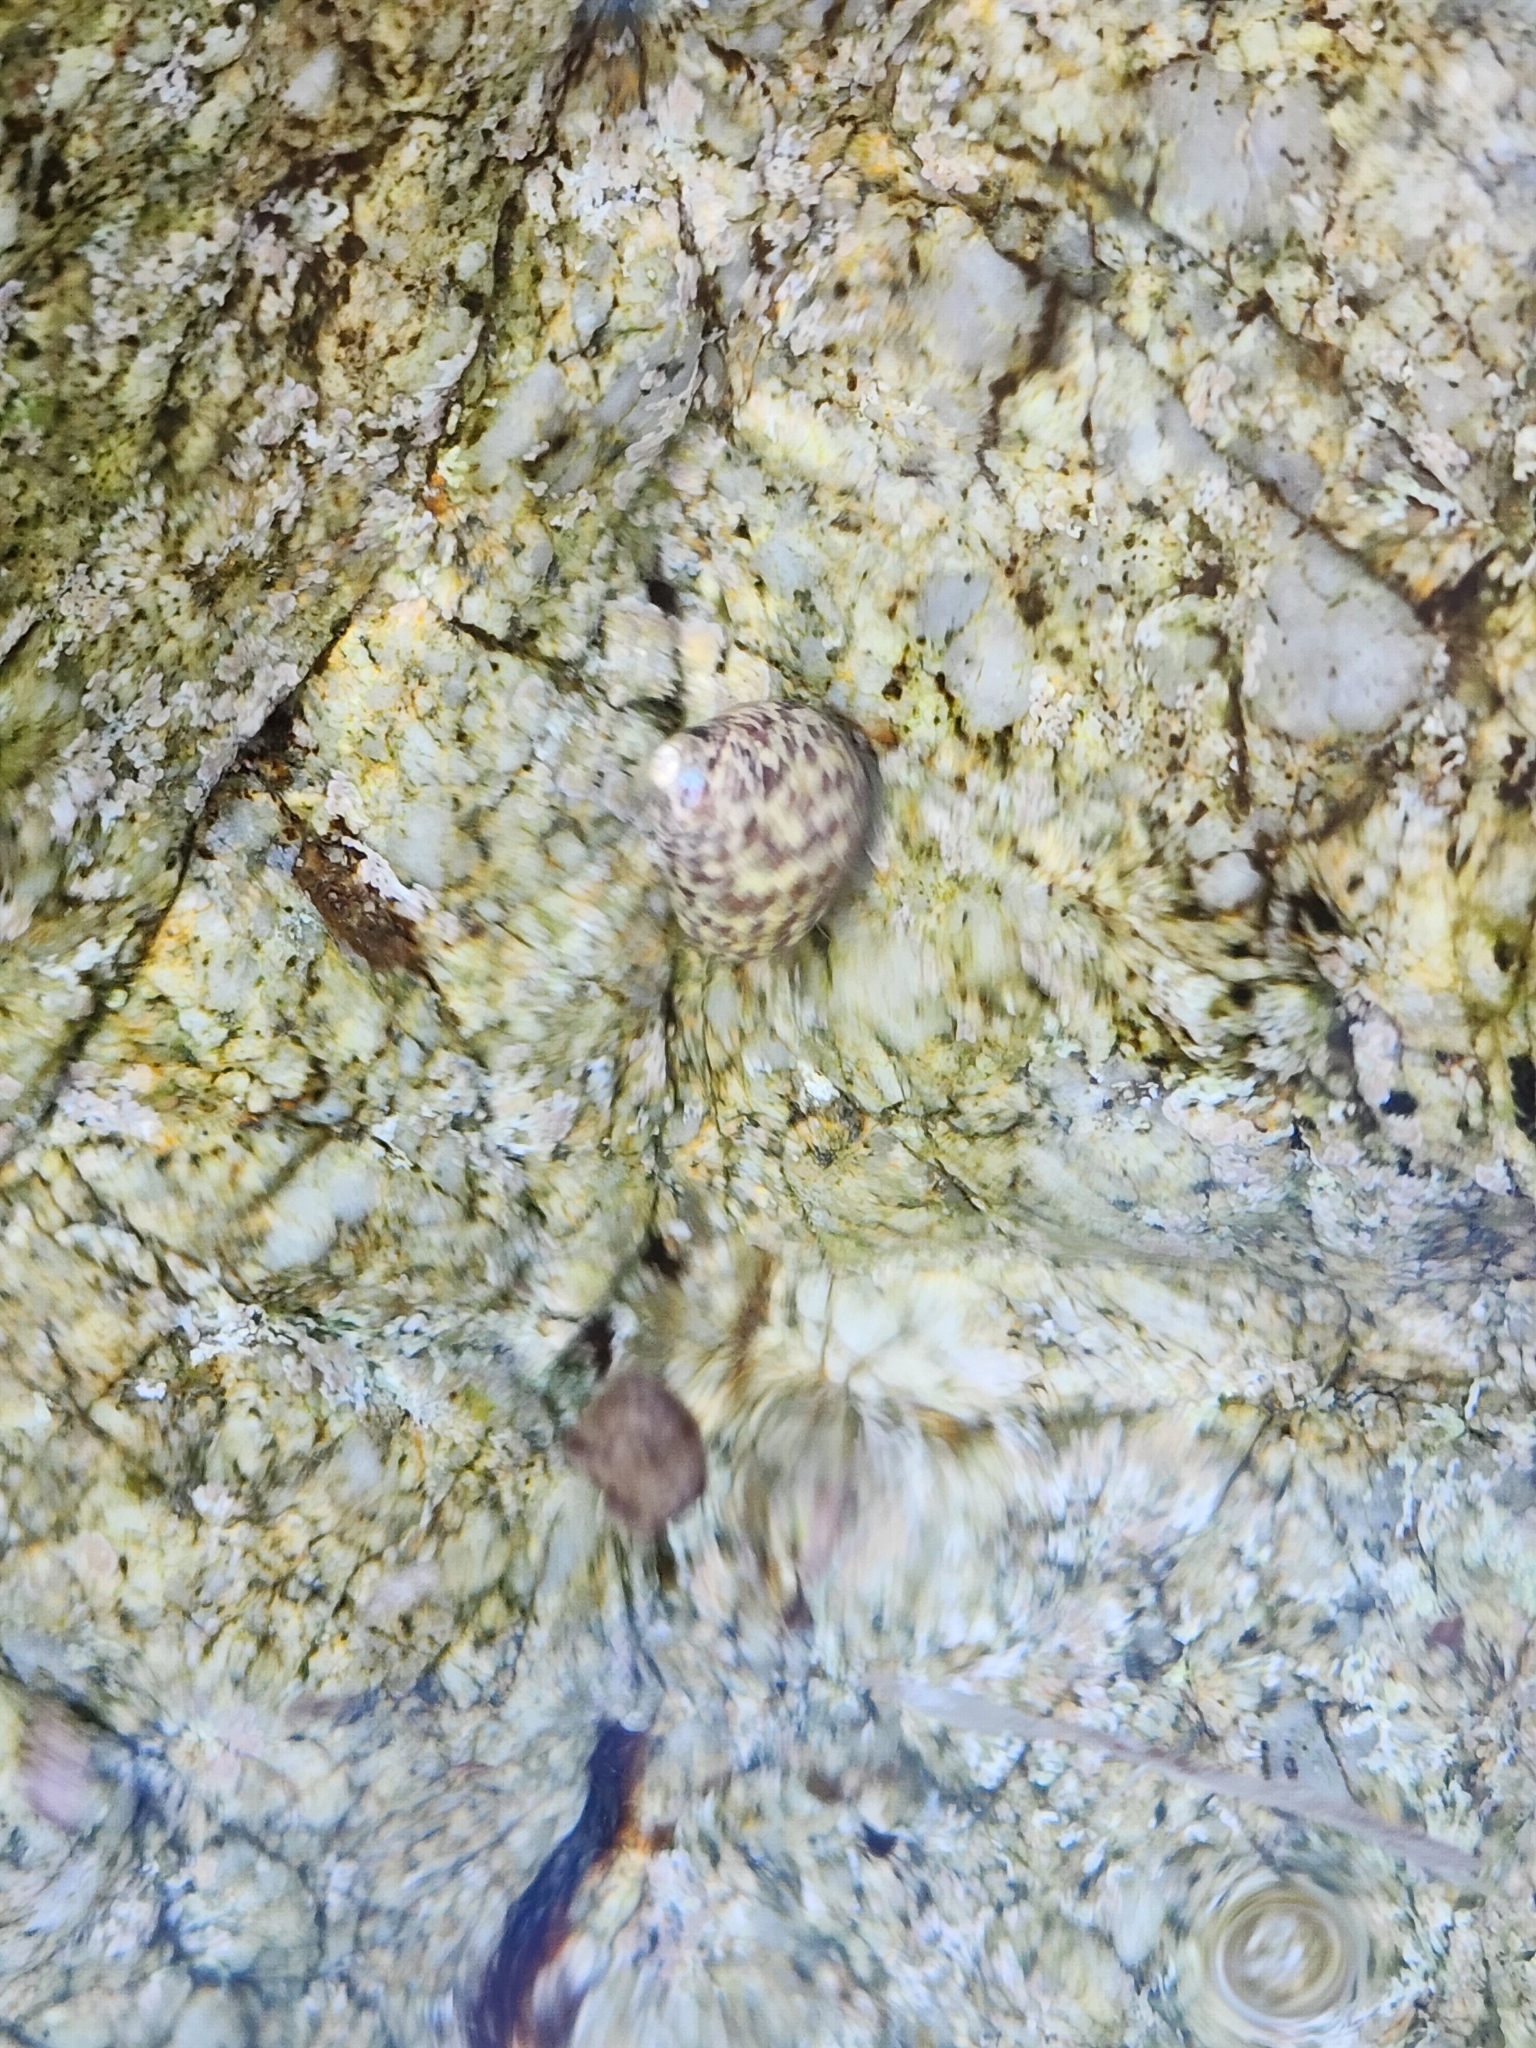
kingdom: Animalia
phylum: Mollusca
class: Gastropoda
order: Trochida
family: Trochidae
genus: Phorcus
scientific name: Phorcus turbinatus
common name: Turbinate monodont
